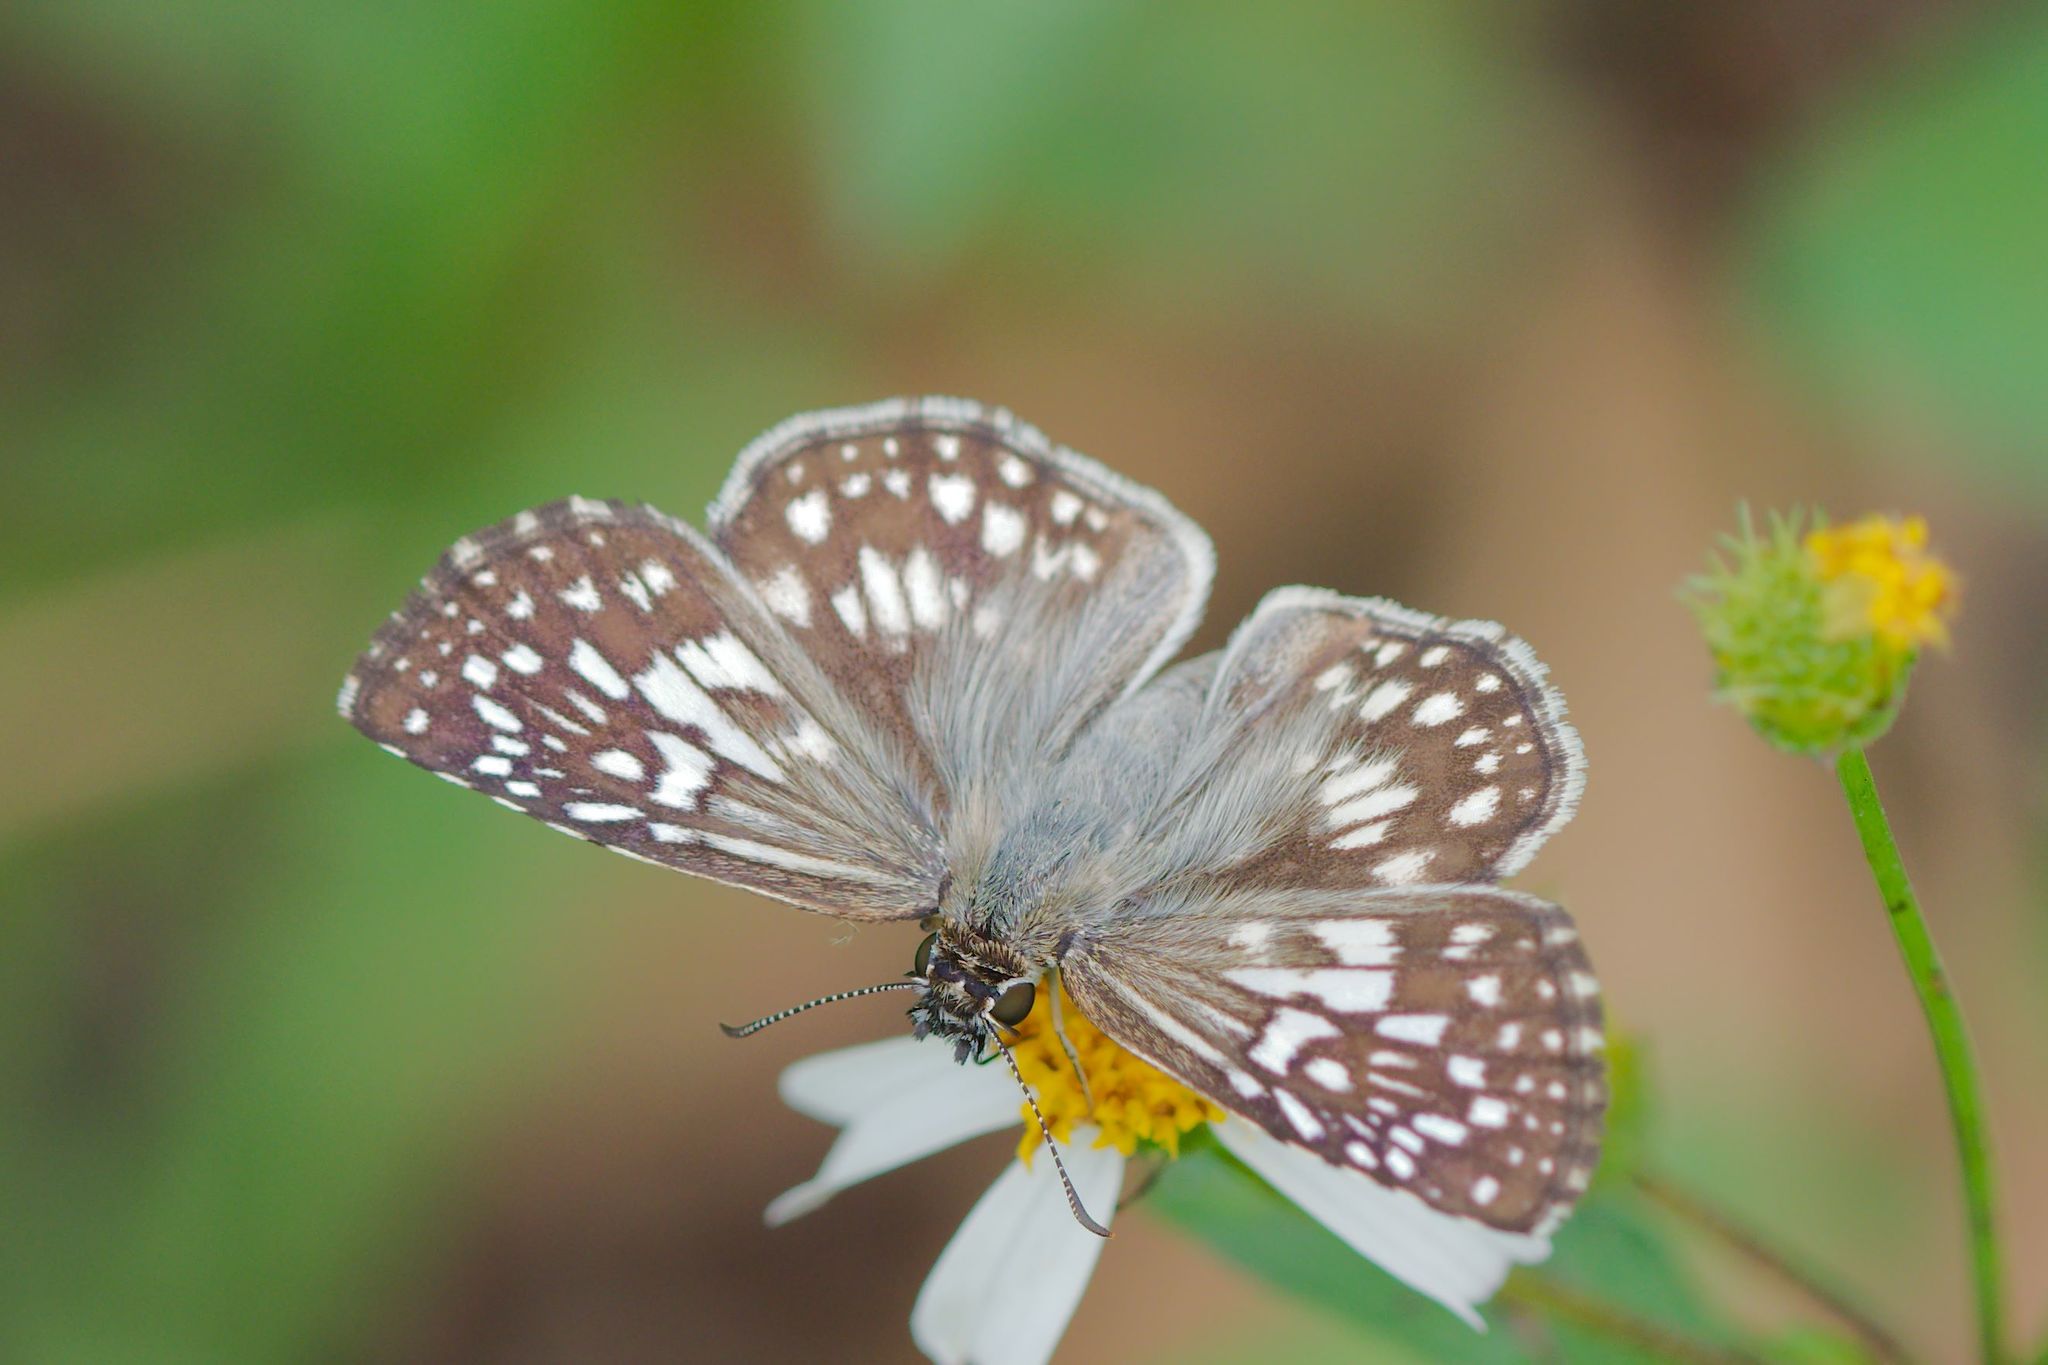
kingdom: Animalia
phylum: Arthropoda
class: Insecta
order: Lepidoptera
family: Hesperiidae
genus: Pyrgus
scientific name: Pyrgus oileus
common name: Tropical checkered-skipper
